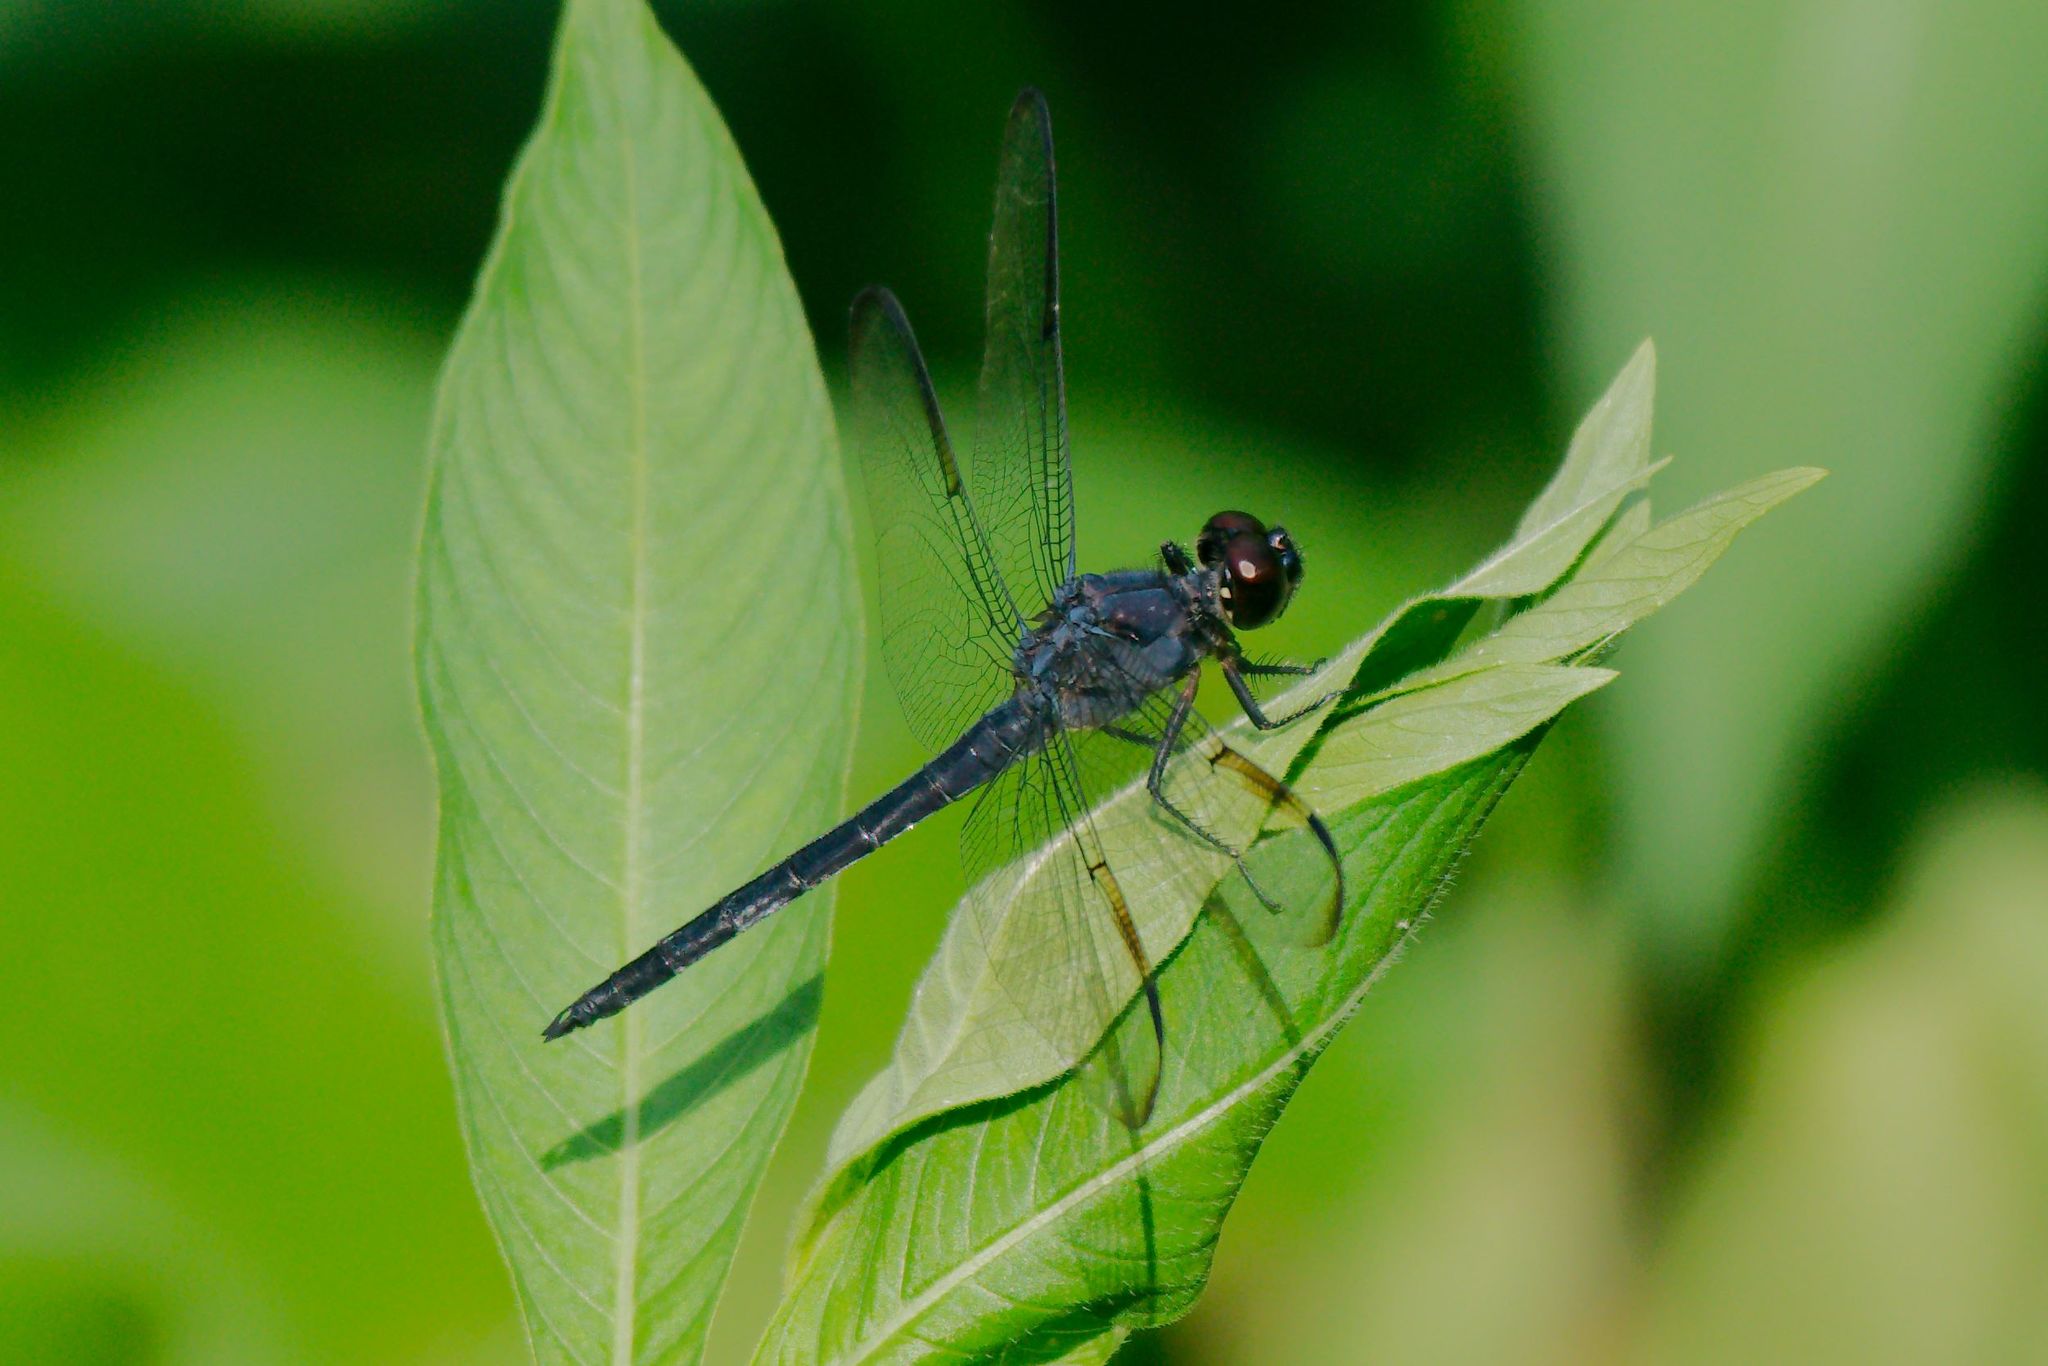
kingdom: Animalia
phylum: Arthropoda
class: Insecta
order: Odonata
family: Libellulidae
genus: Libellula
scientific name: Libellula incesta
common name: Slaty skimmer
